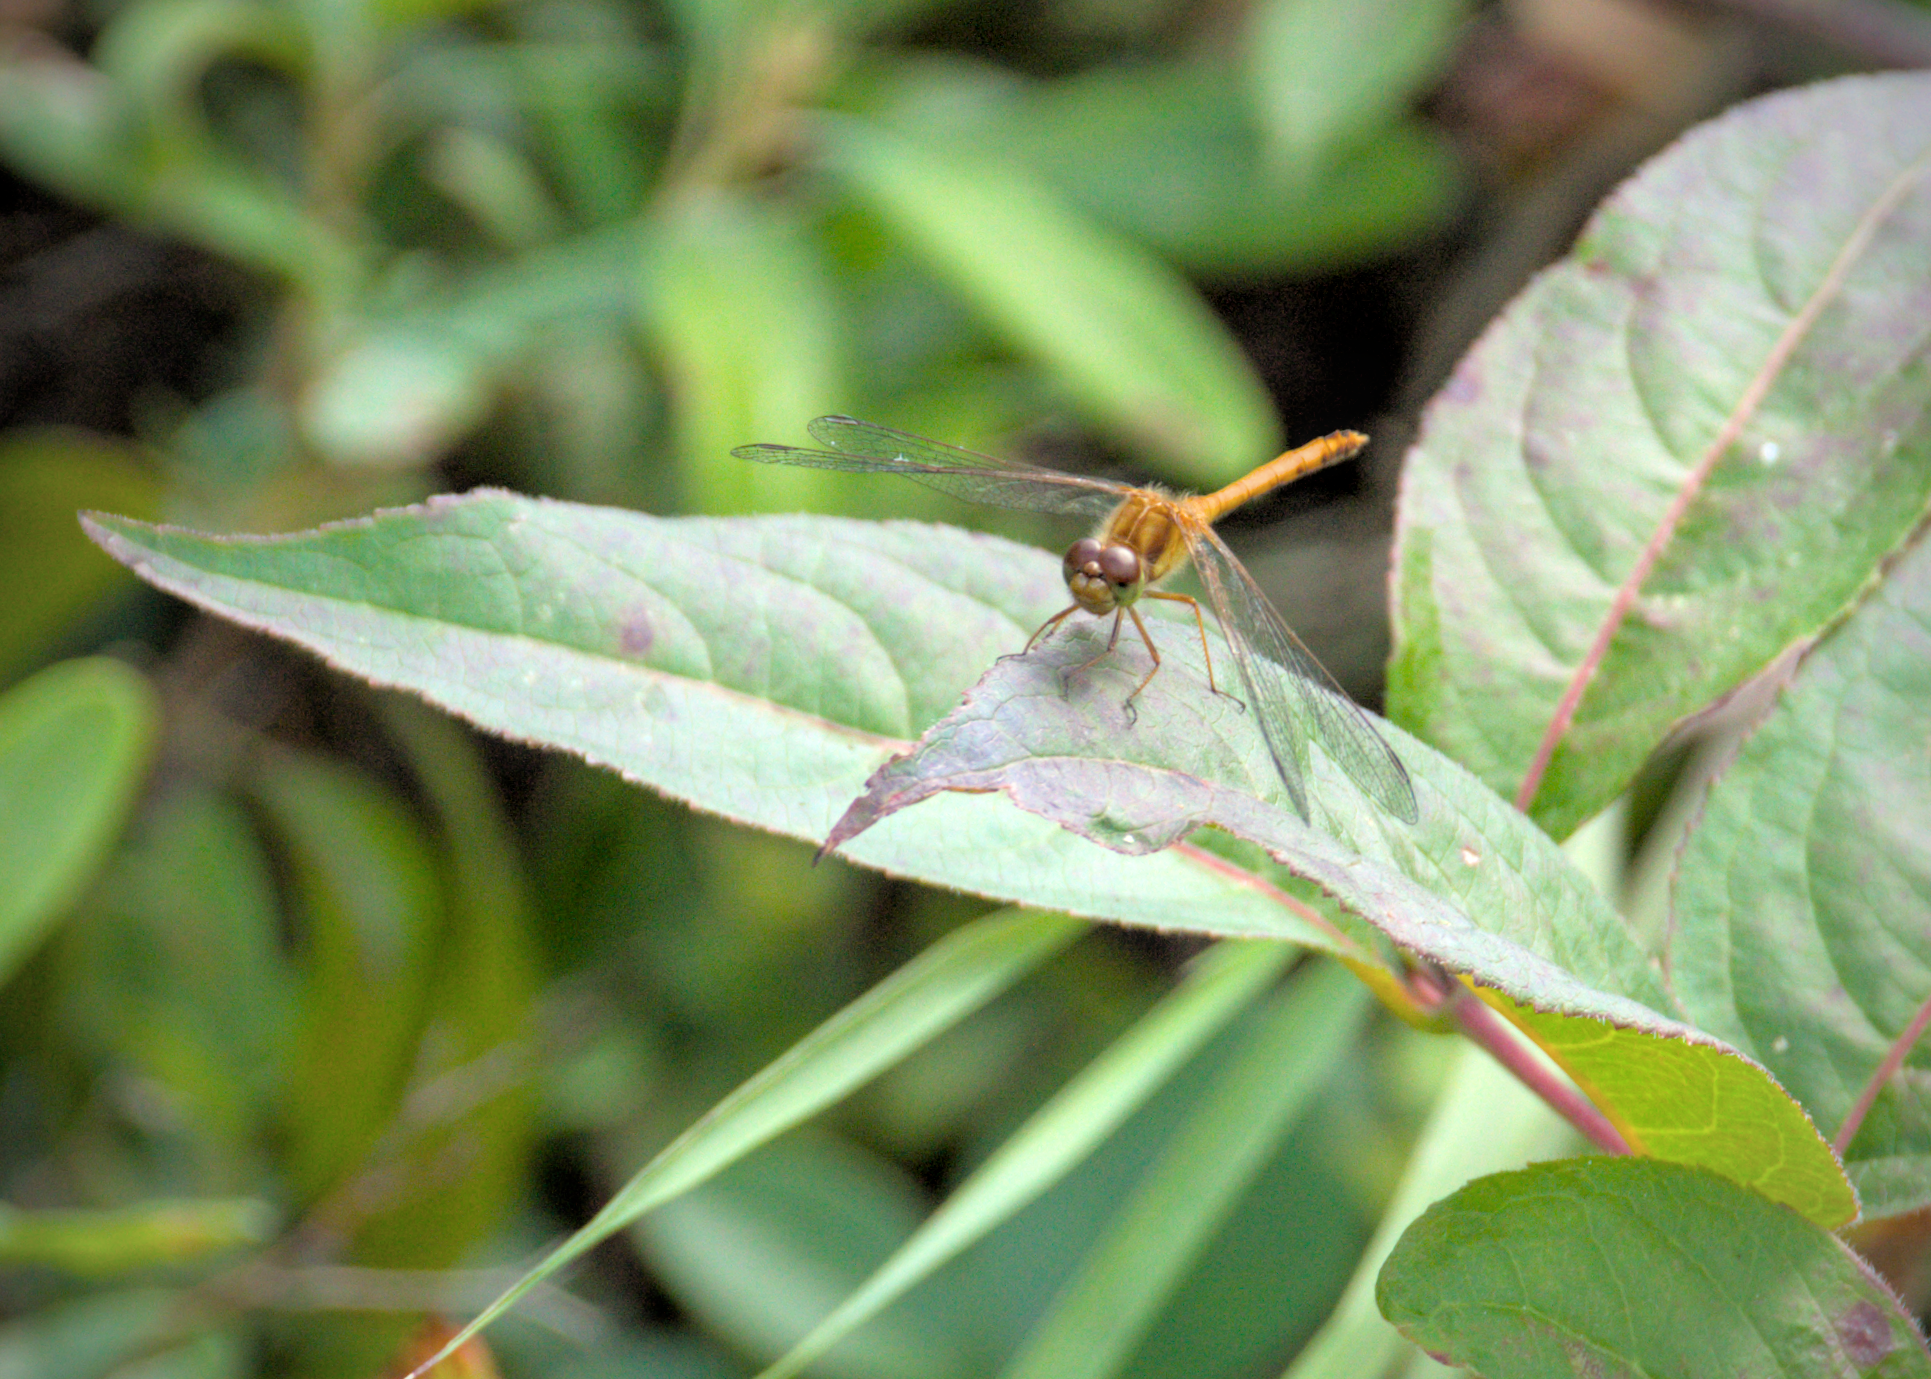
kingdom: Animalia
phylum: Arthropoda
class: Insecta
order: Odonata
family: Libellulidae
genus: Sympetrum
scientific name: Sympetrum vicinum
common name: Autumn meadowhawk
